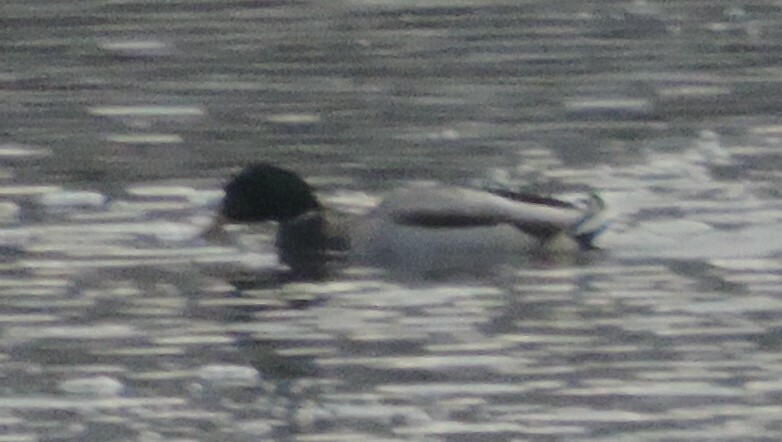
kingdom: Animalia
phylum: Chordata
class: Aves
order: Anseriformes
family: Anatidae
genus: Anas
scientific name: Anas platyrhynchos
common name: Mallard
